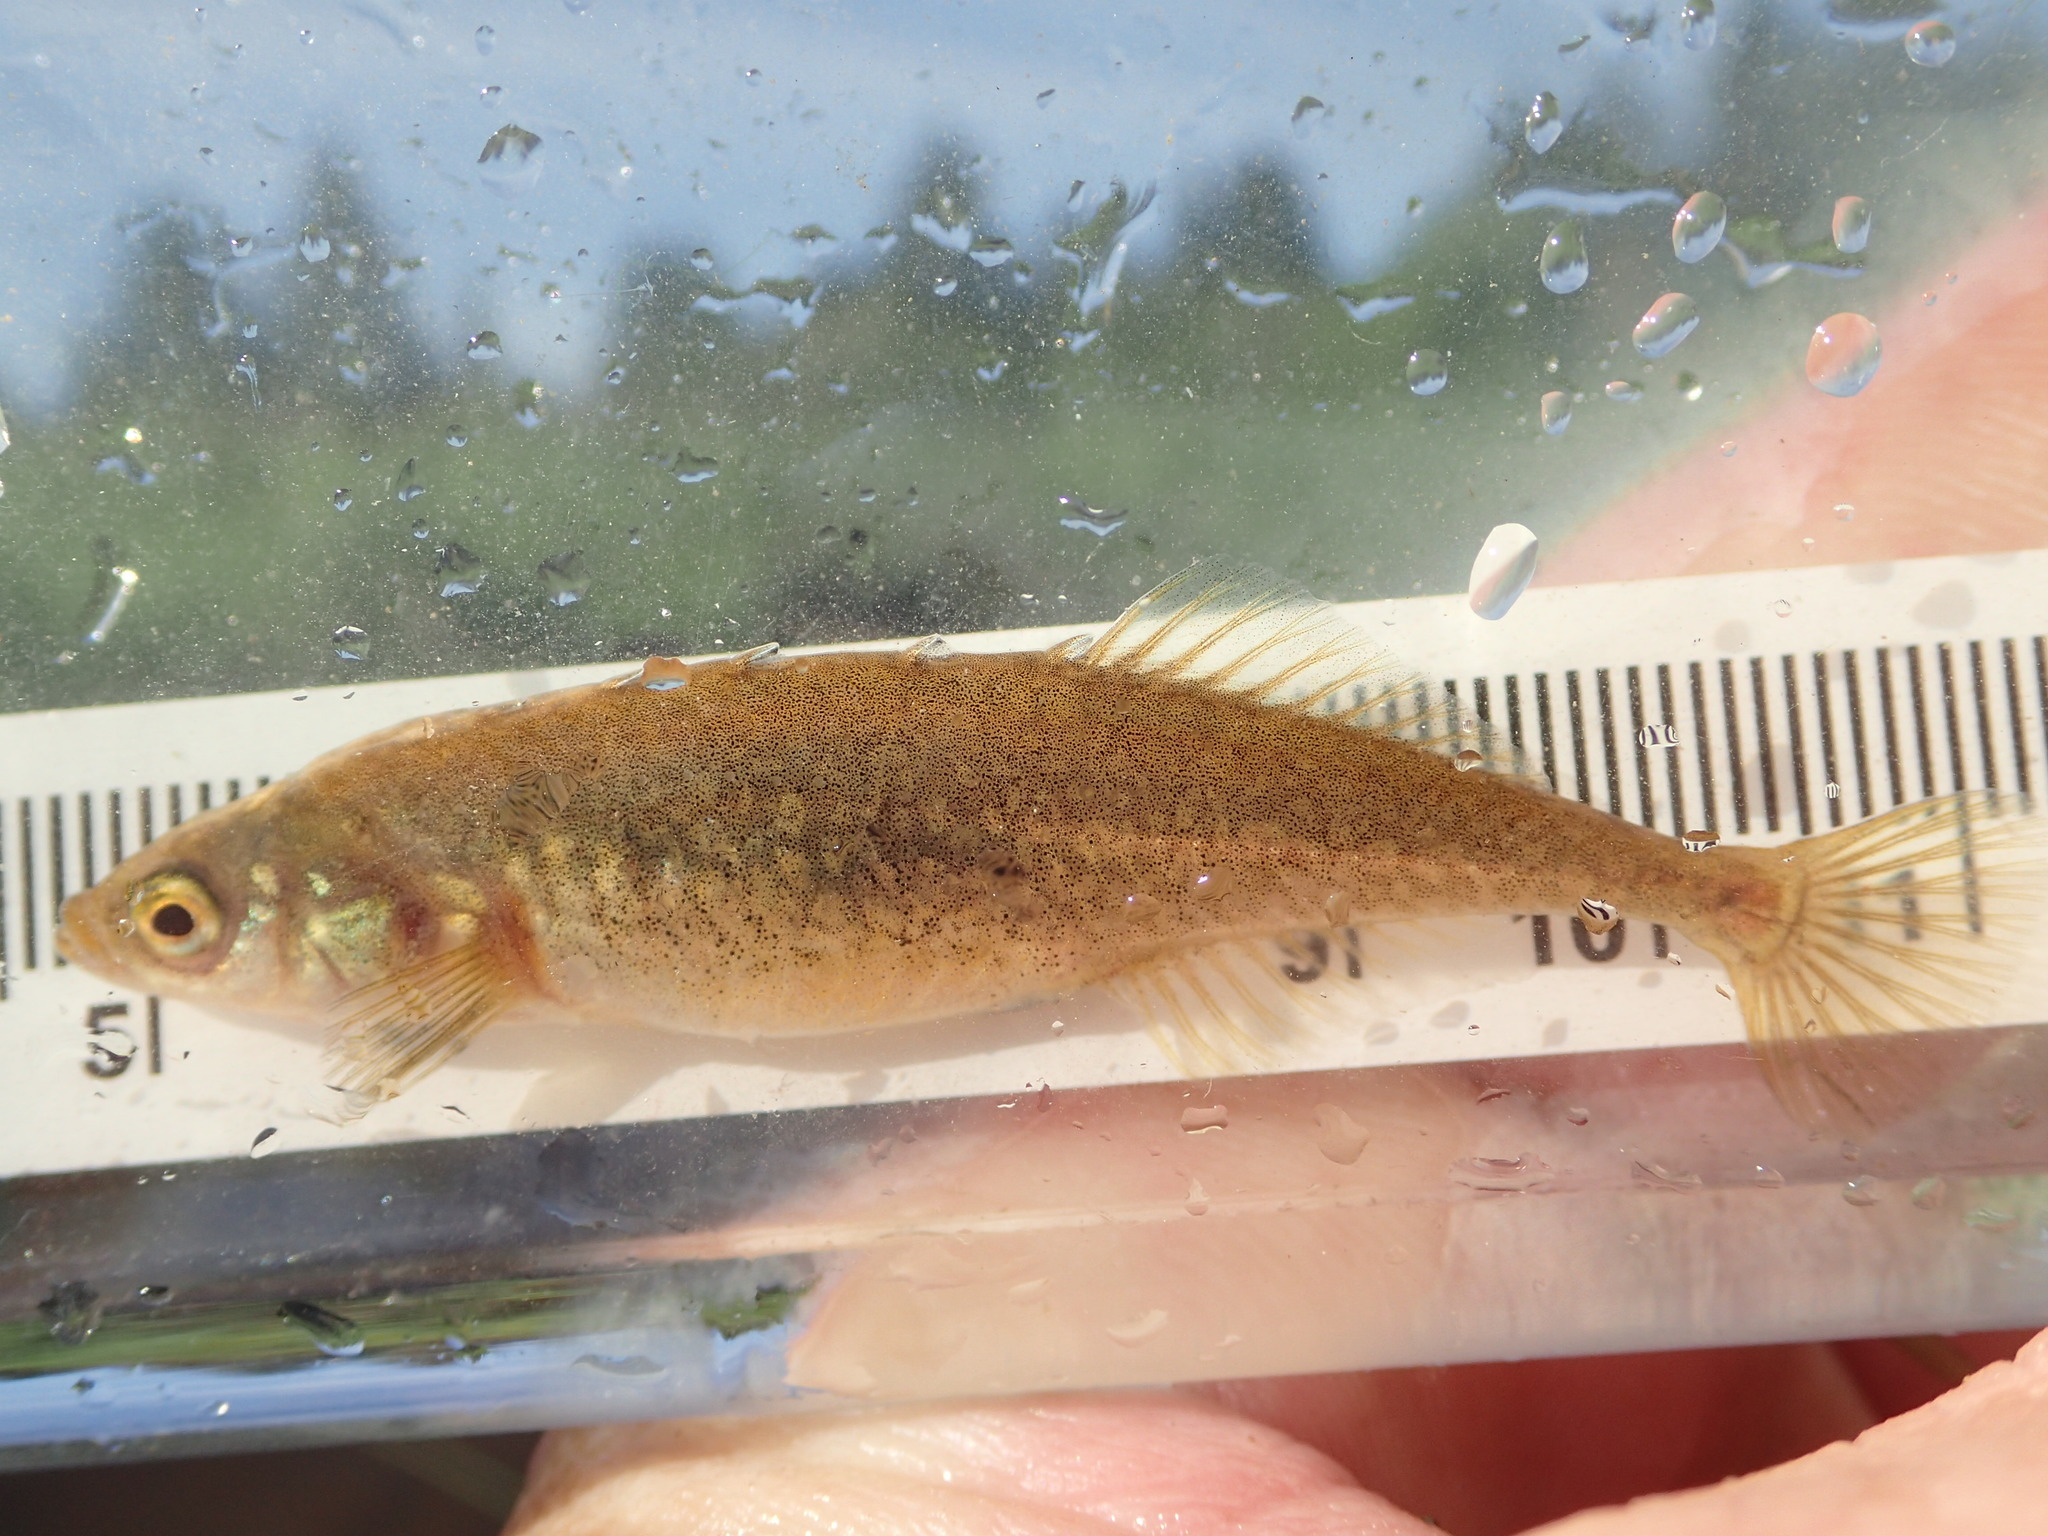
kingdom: Animalia
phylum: Chordata
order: Gasterosteiformes
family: Gasterosteidae
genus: Culaea
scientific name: Culaea inconstans
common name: Brook stickleback
